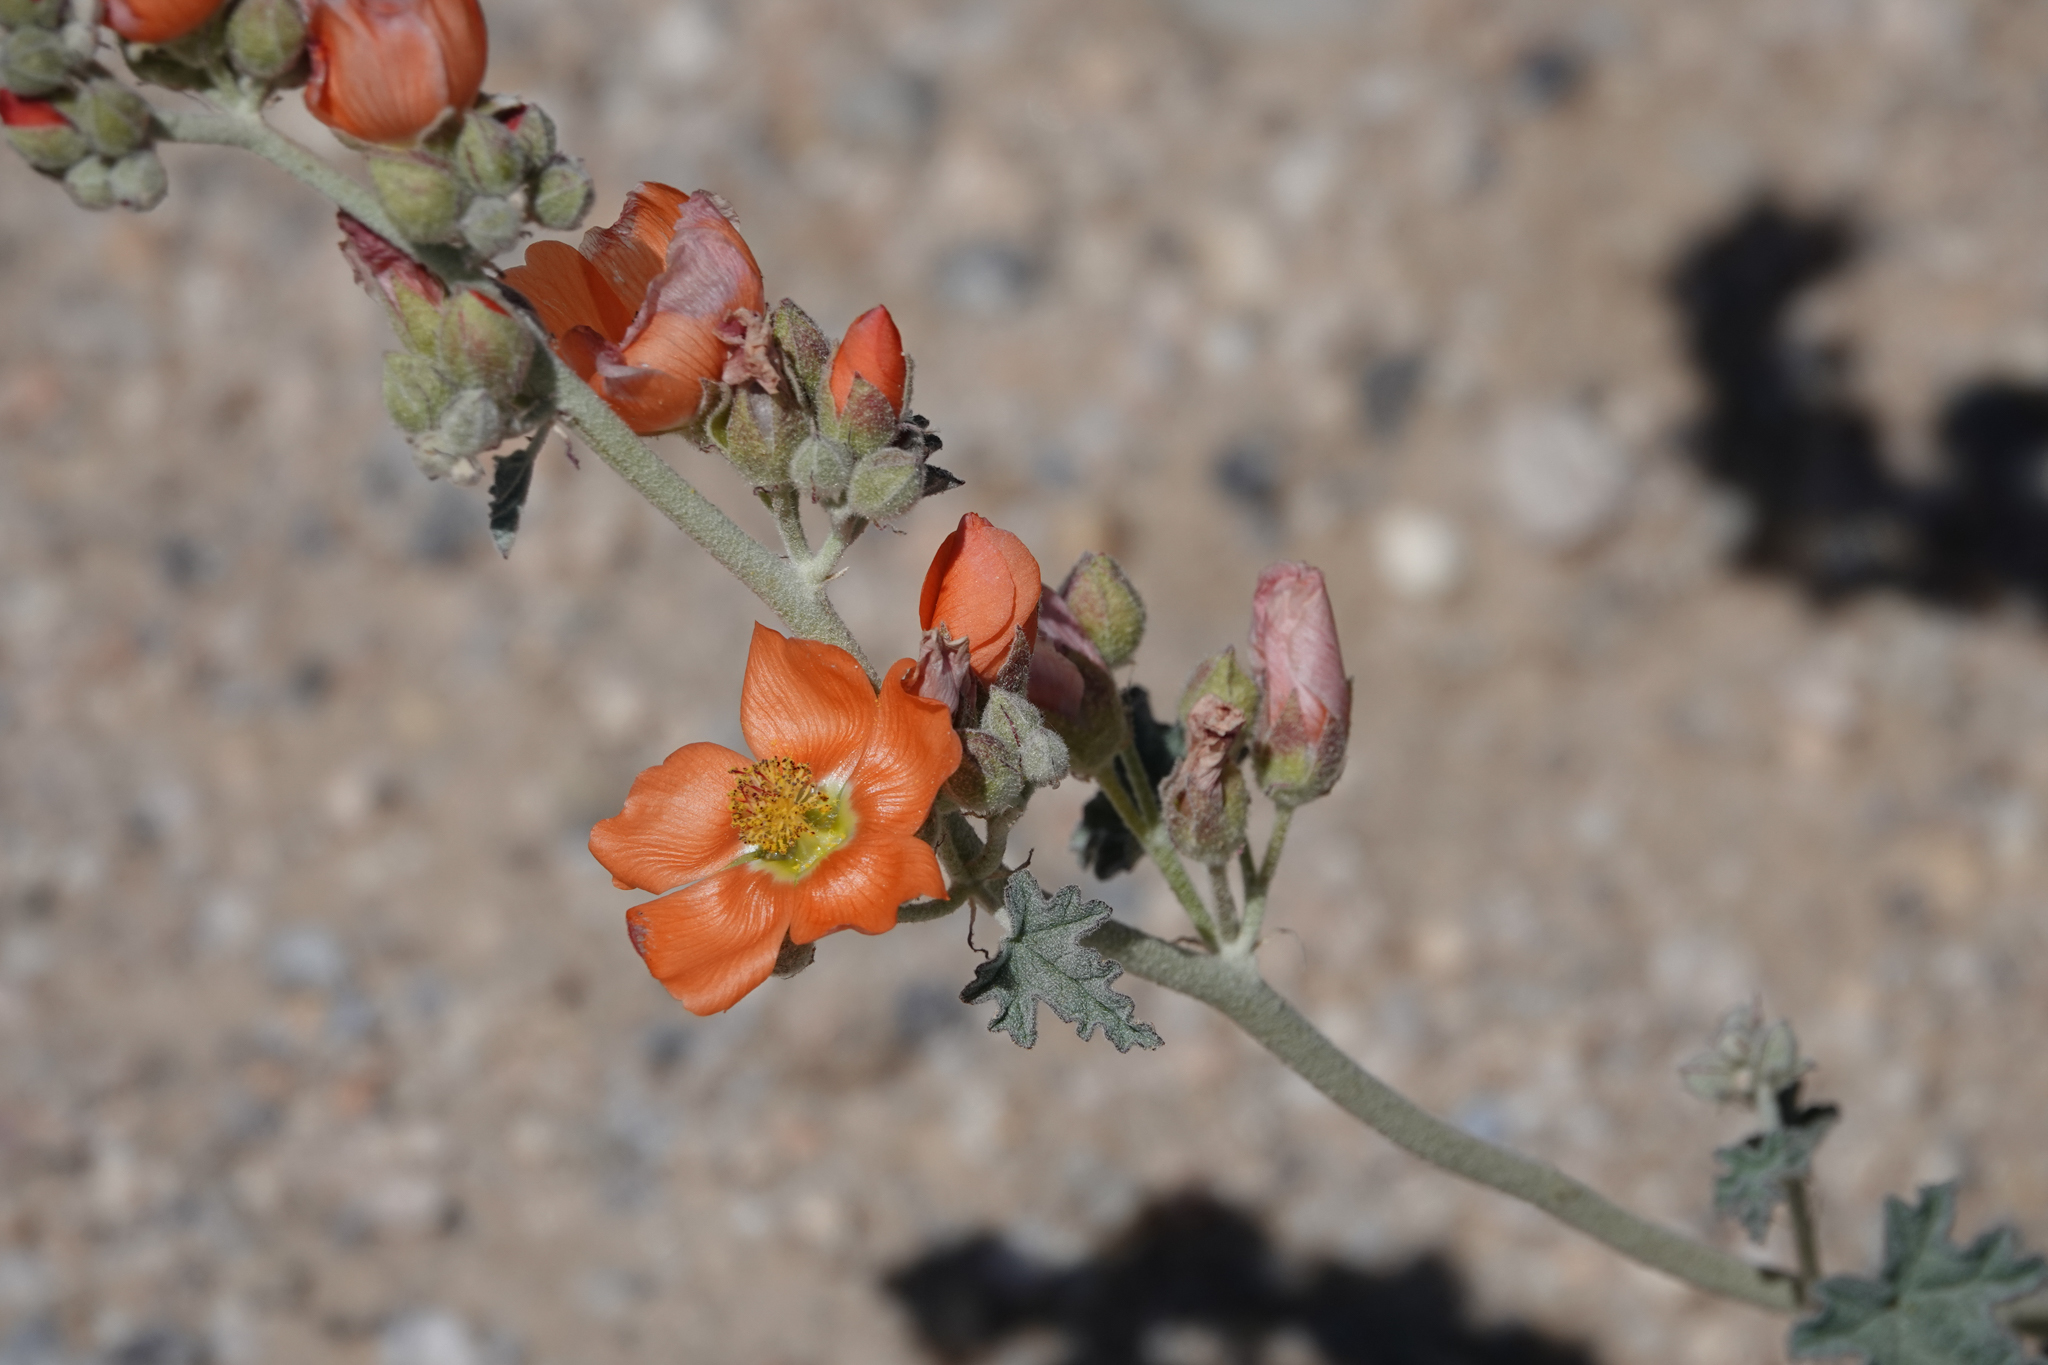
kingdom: Plantae
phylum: Tracheophyta
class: Magnoliopsida
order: Malvales
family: Malvaceae
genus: Sphaeralcea
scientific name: Sphaeralcea ambigua
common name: Apricot globe-mallow
